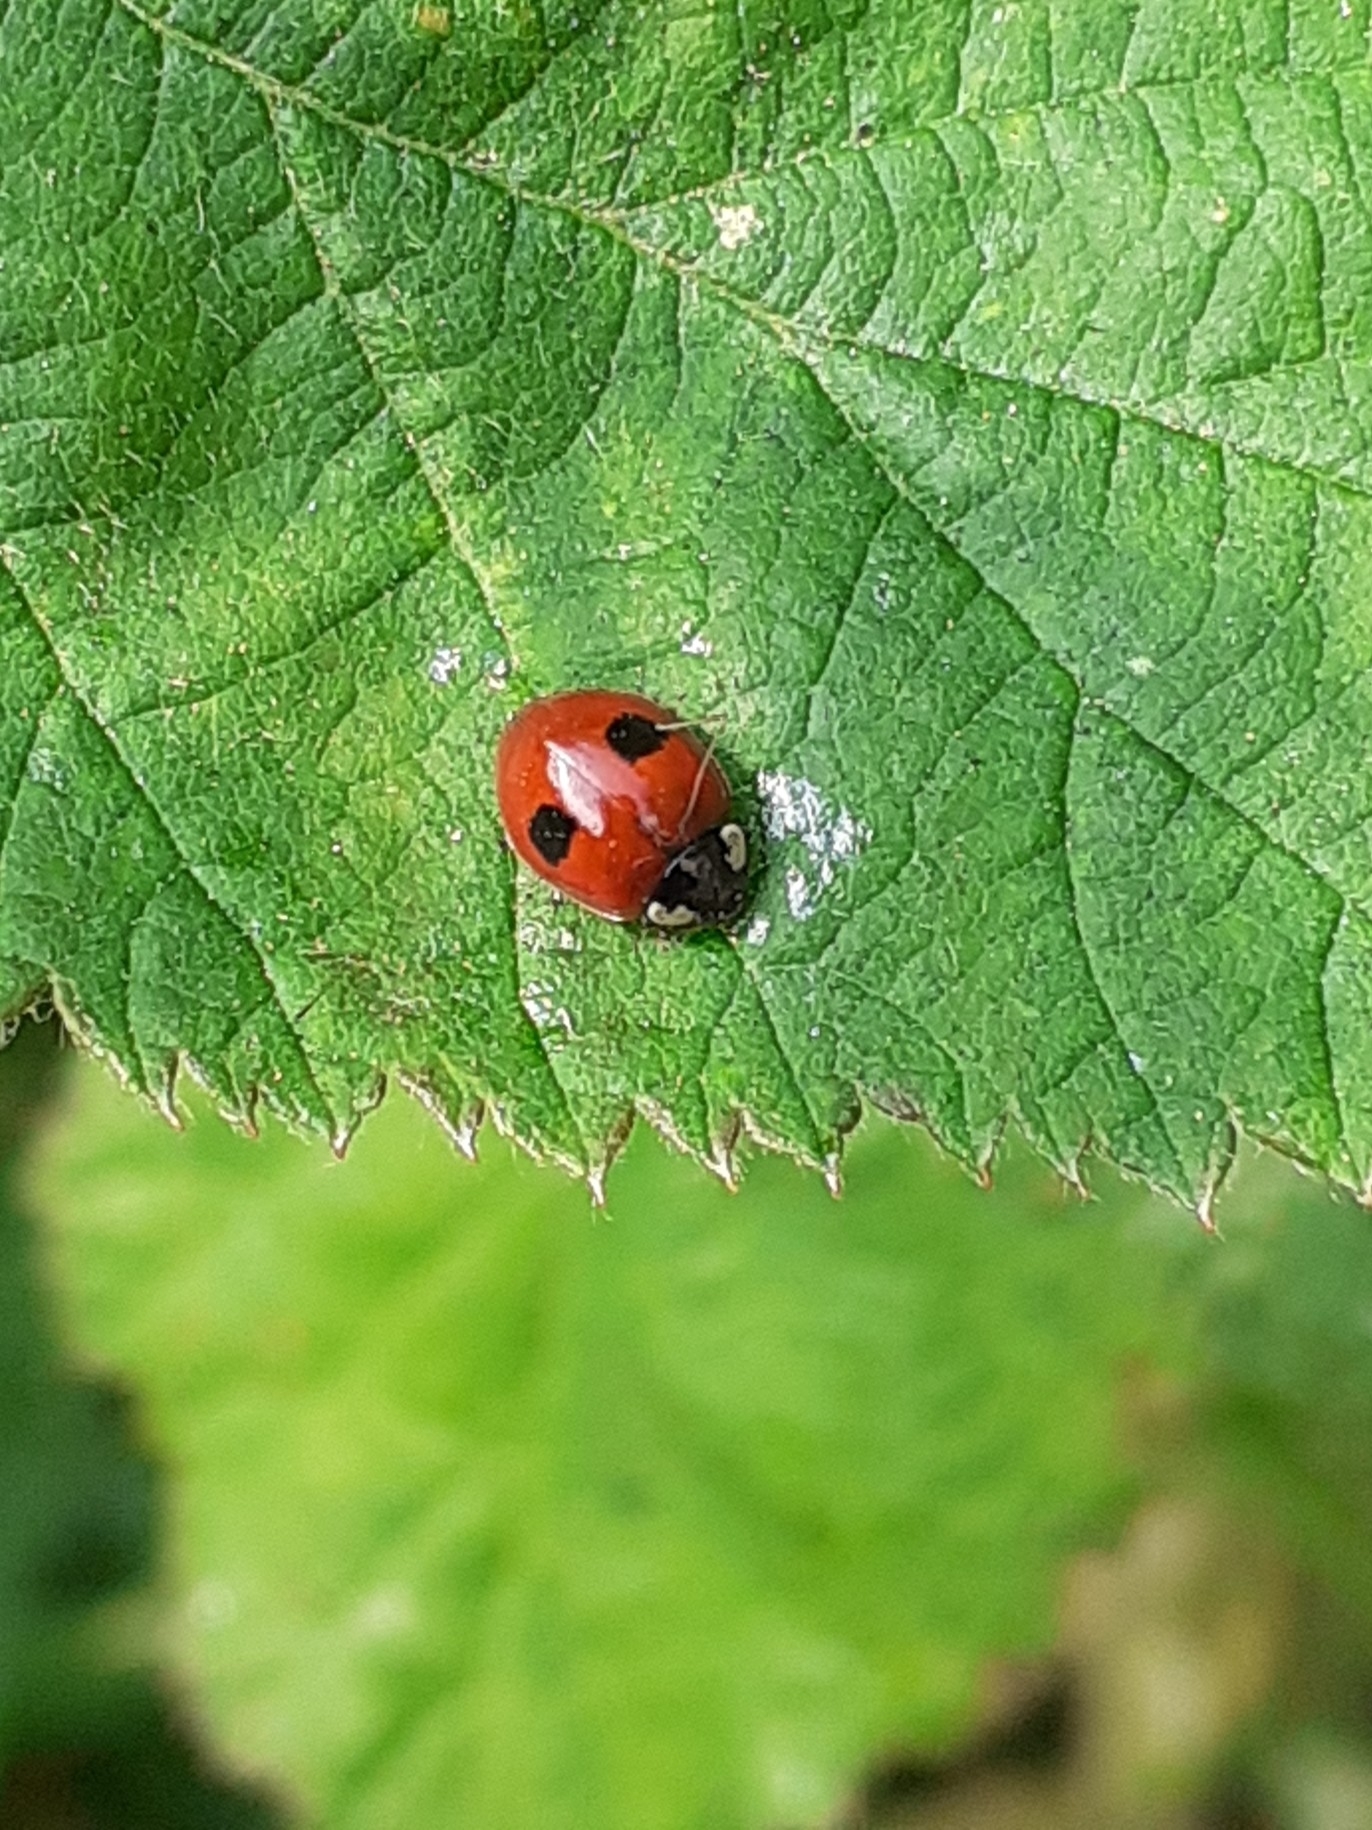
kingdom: Animalia
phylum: Arthropoda
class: Insecta
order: Coleoptera
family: Coccinellidae
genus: Adalia
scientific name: Adalia bipunctata
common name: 2-spot ladybird
